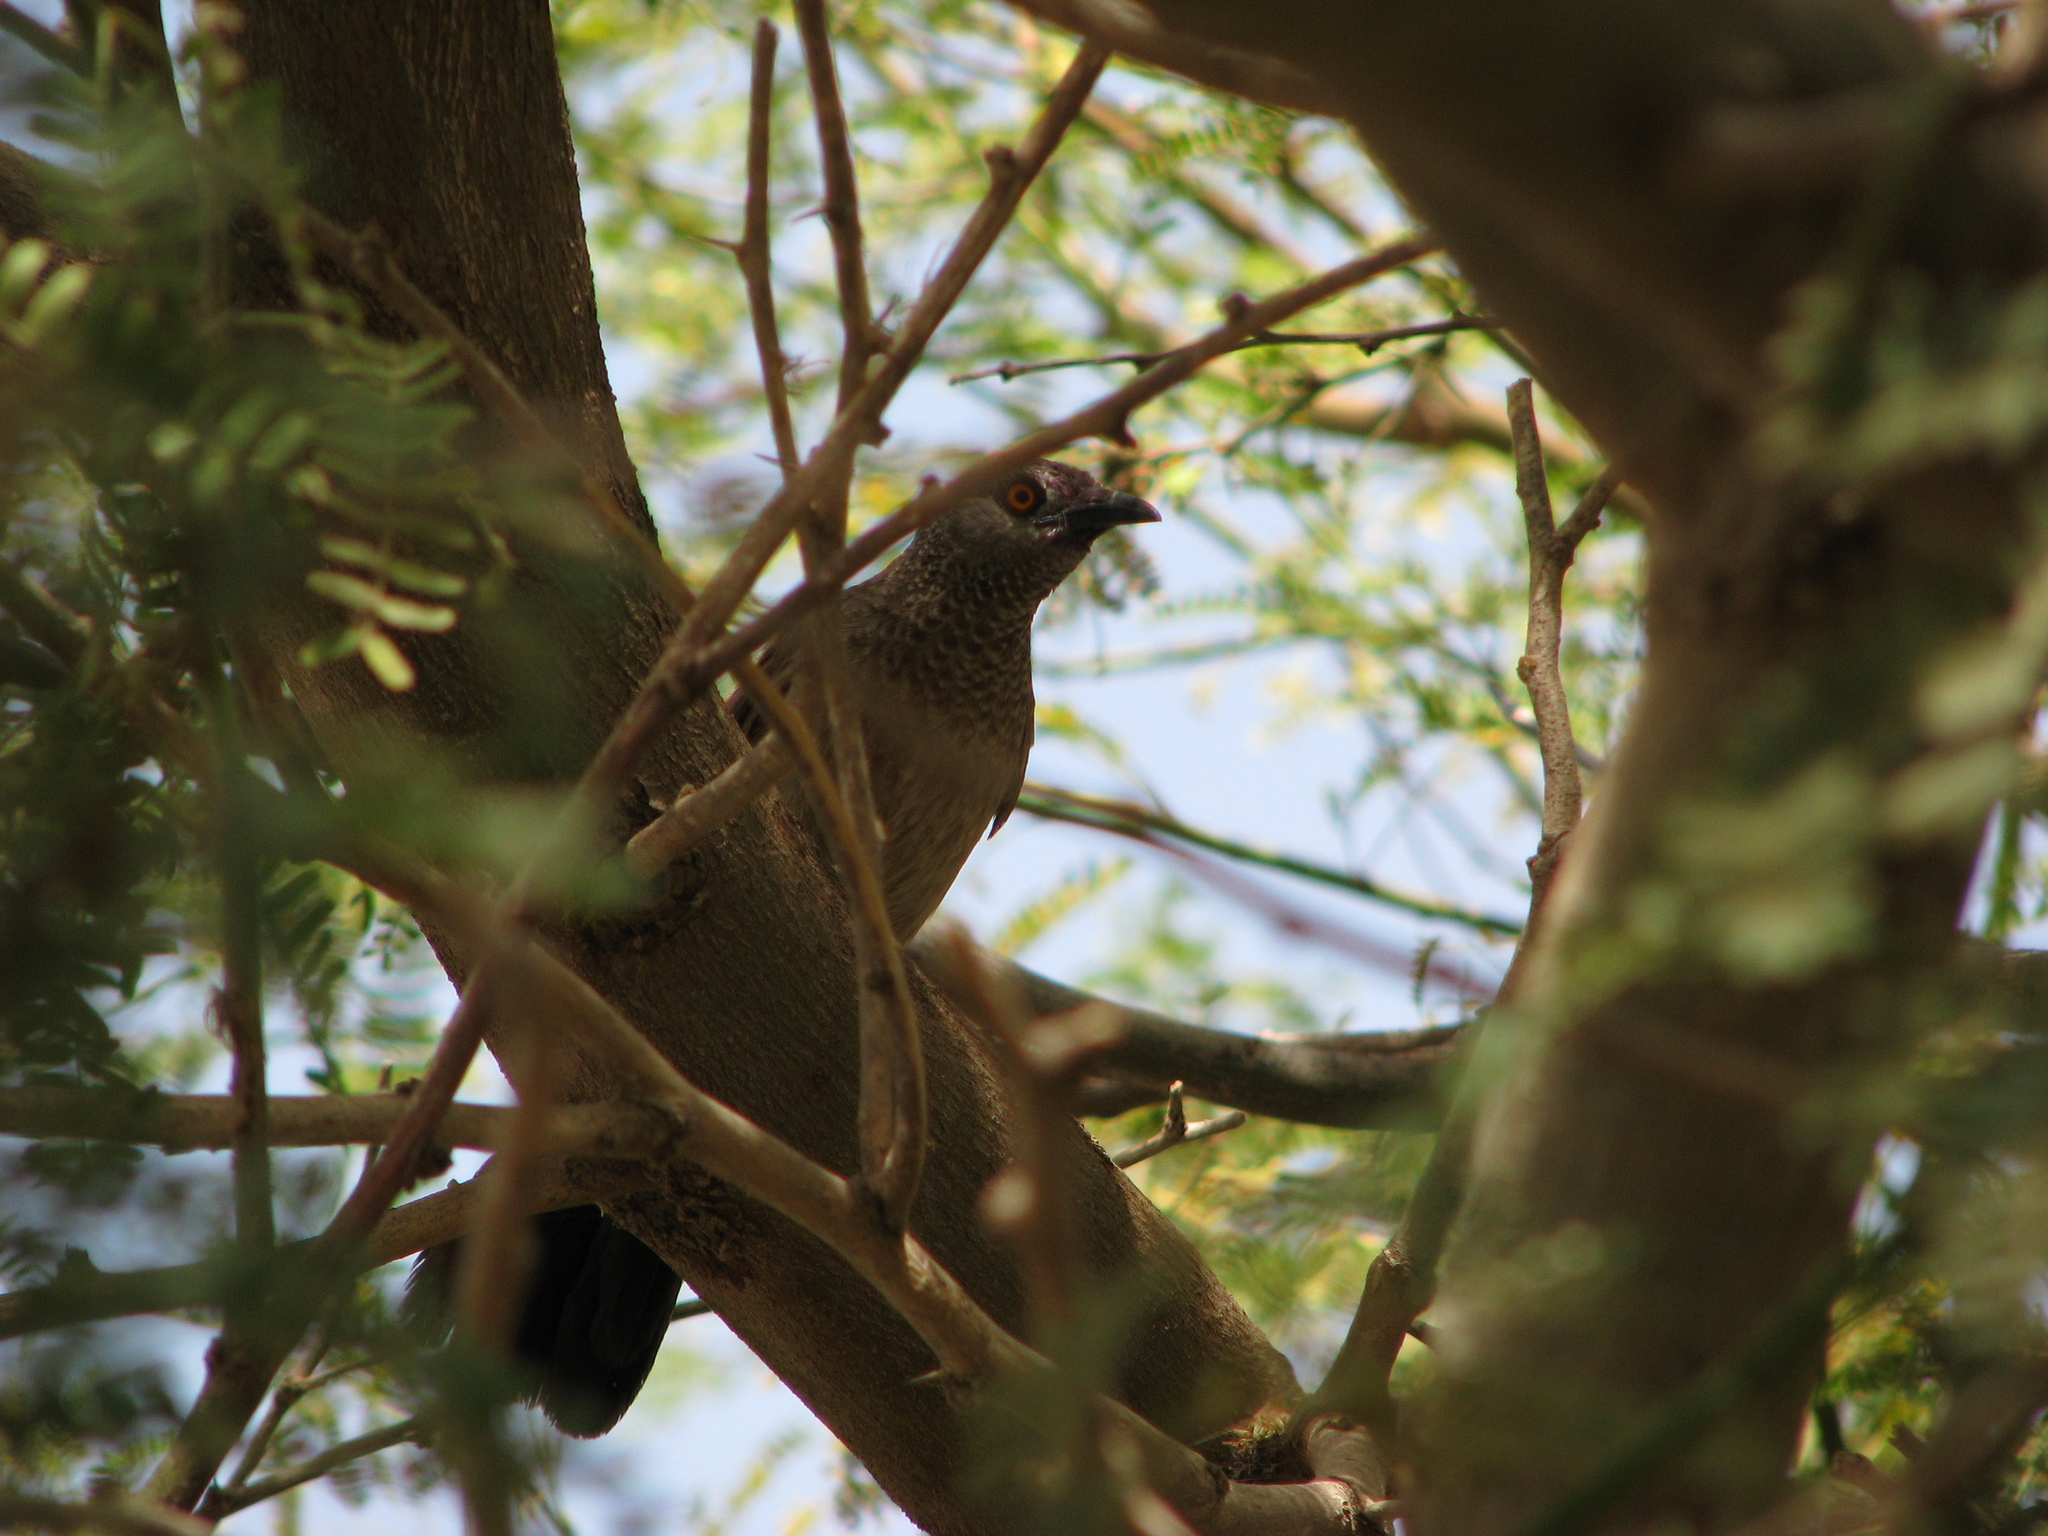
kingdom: Animalia
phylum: Chordata
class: Aves
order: Passeriformes
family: Leiothrichidae
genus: Turdoides
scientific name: Turdoides plebejus
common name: Brown babbler
